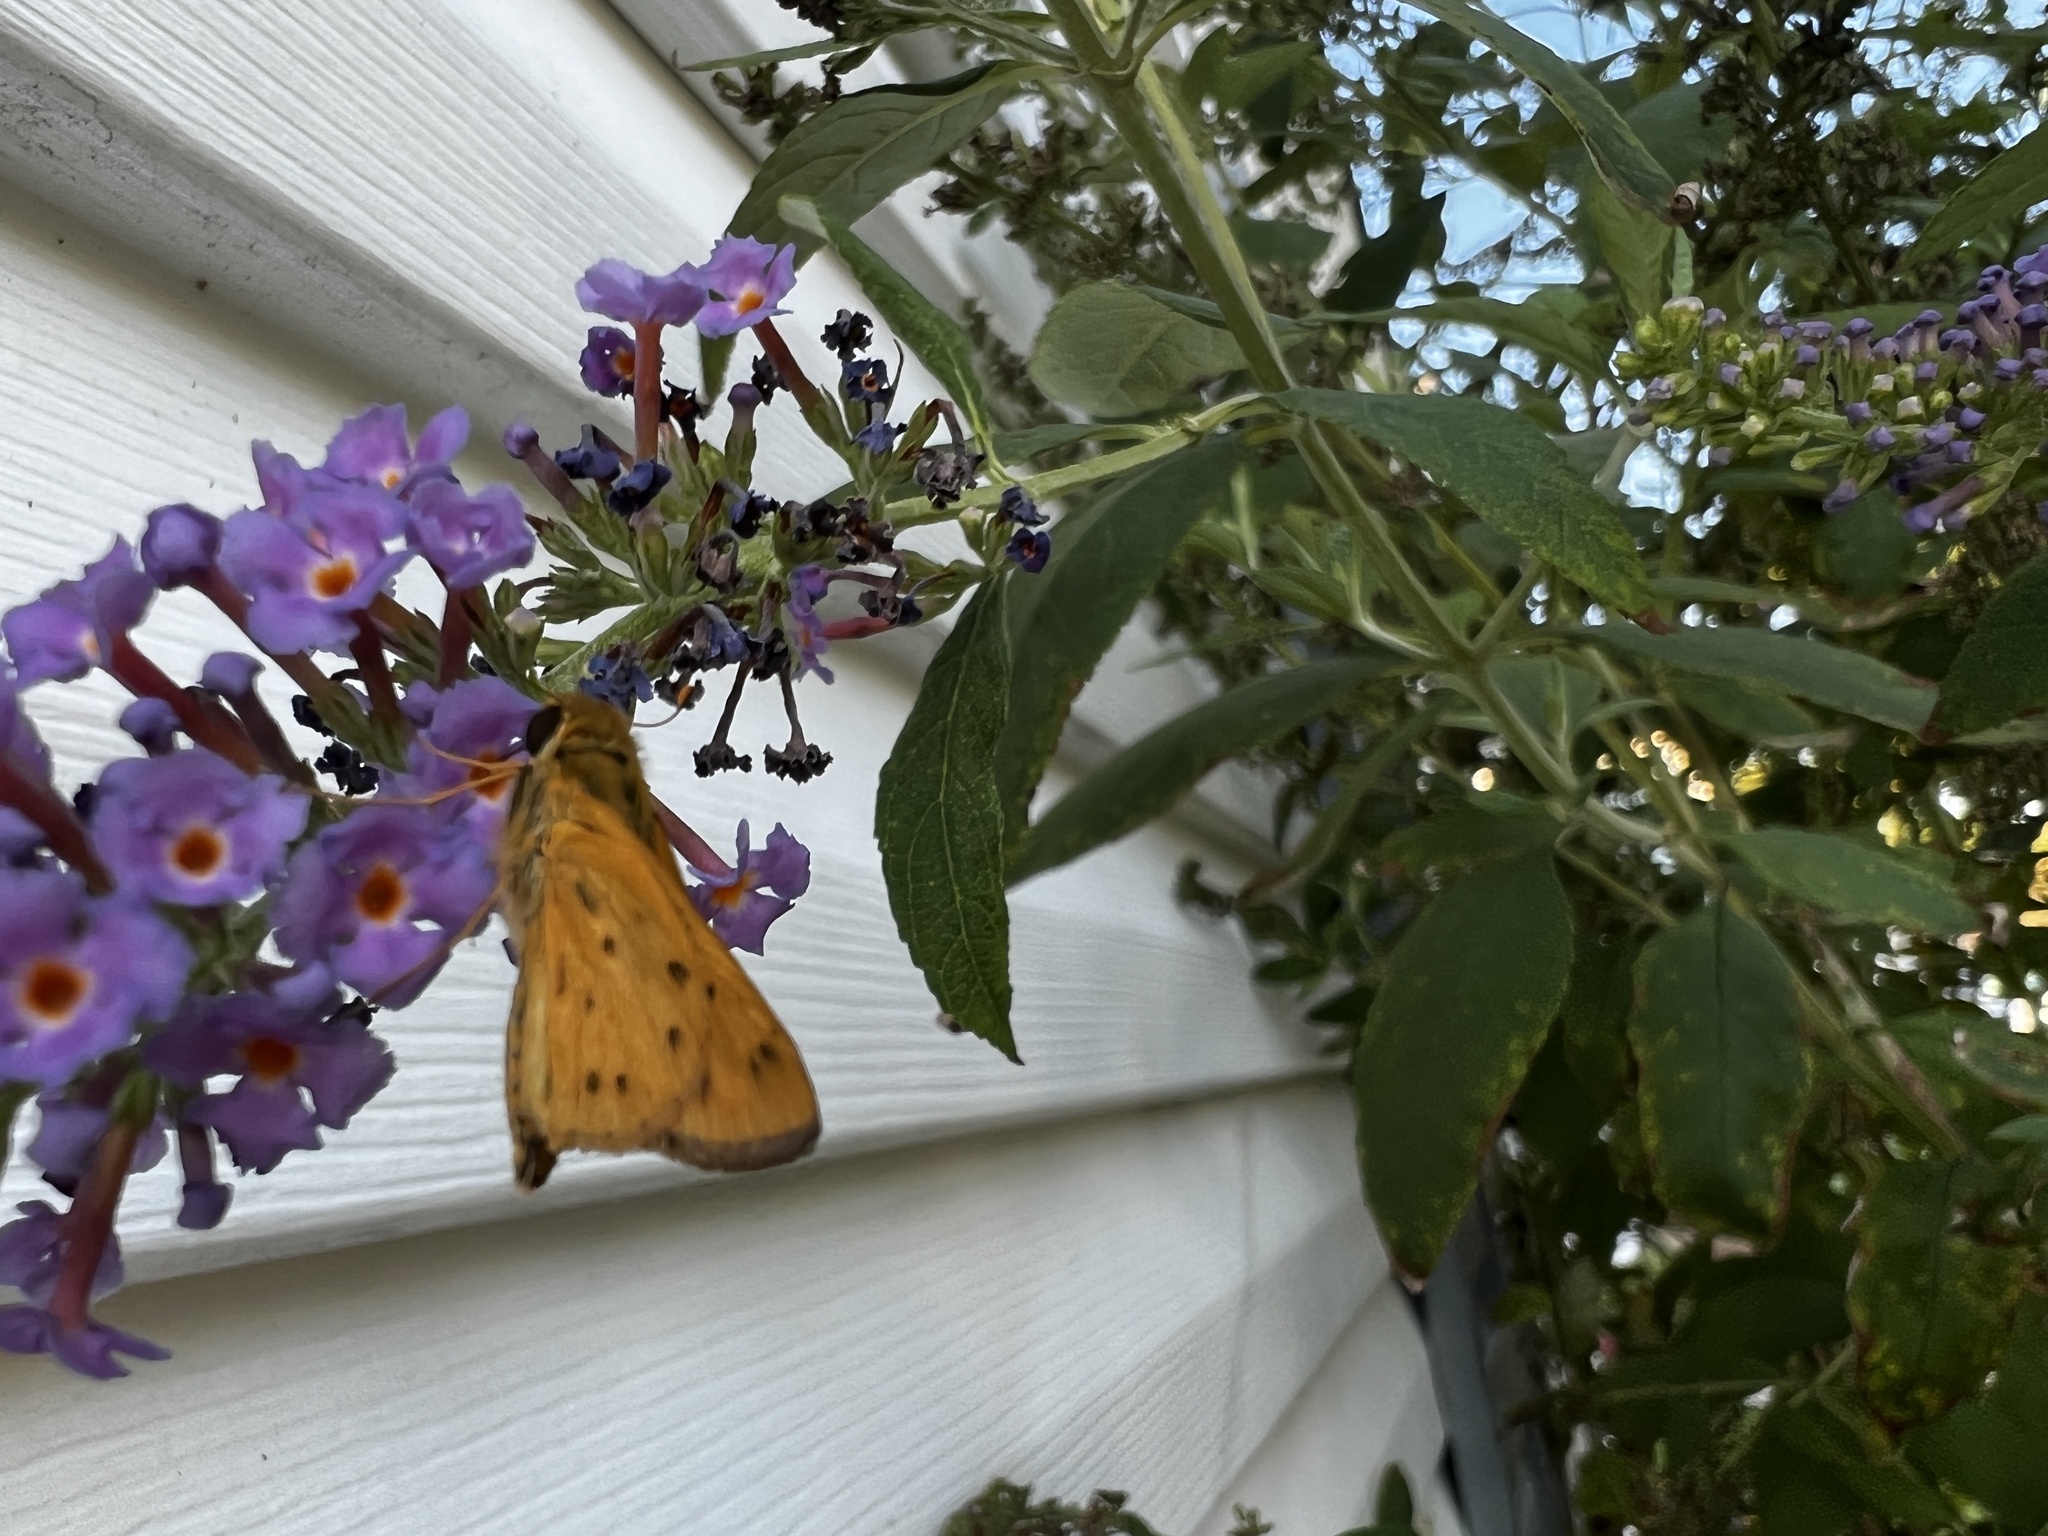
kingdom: Animalia
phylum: Arthropoda
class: Insecta
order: Lepidoptera
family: Hesperiidae
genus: Hylephila
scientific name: Hylephila phyleus
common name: Fiery skipper
